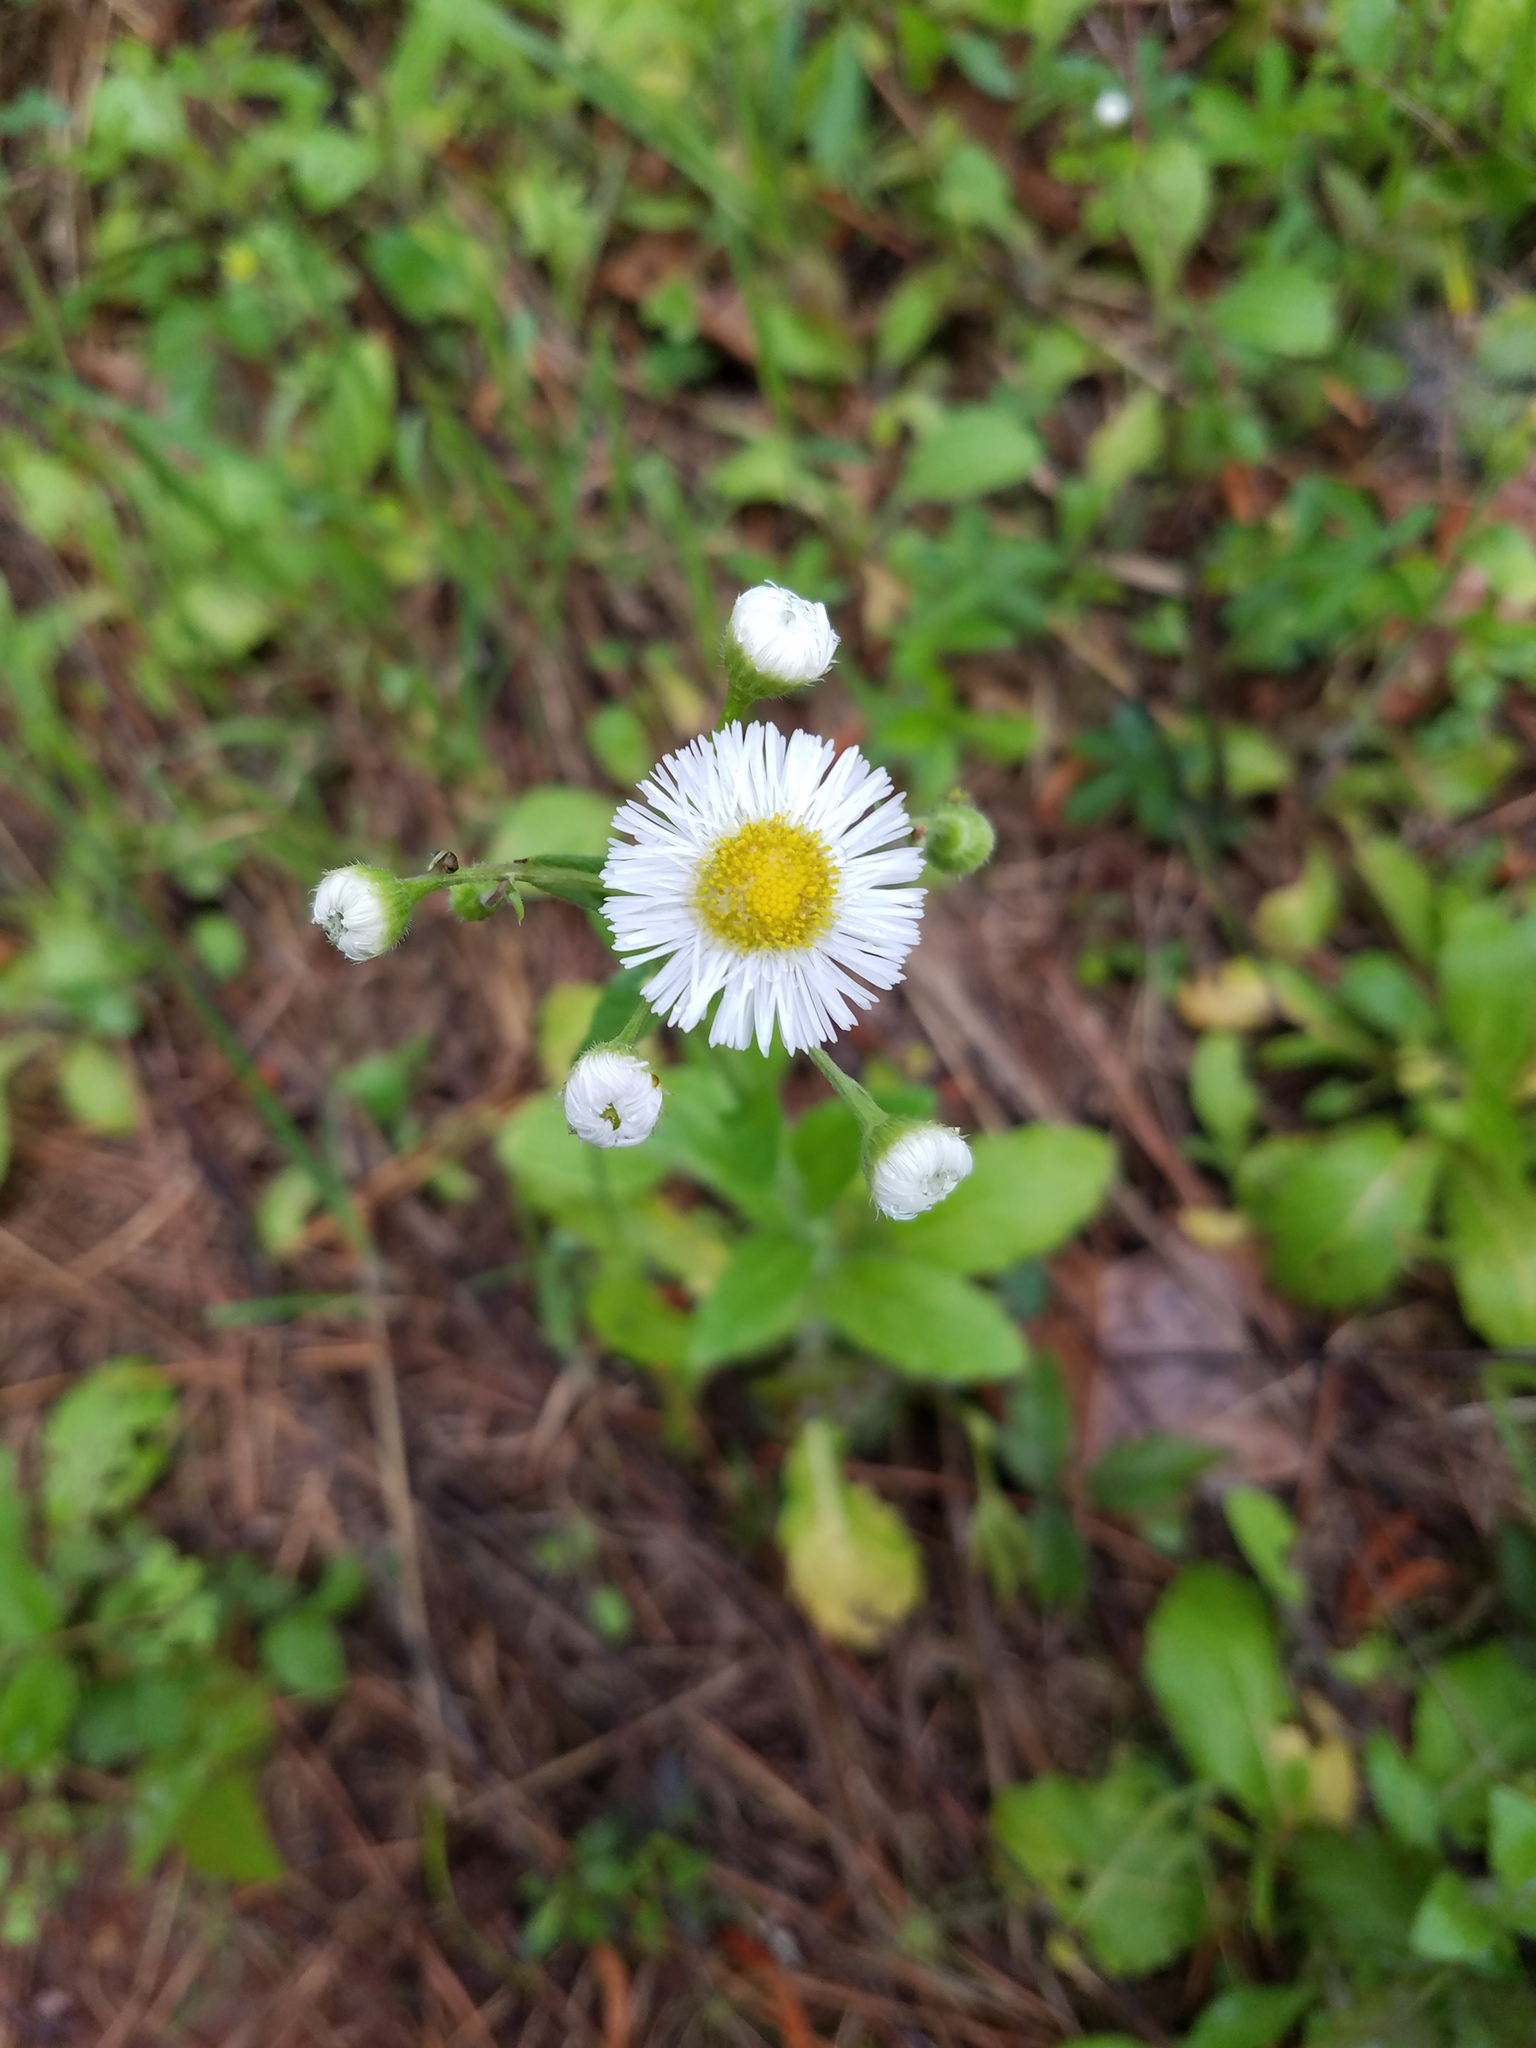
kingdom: Plantae
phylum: Tracheophyta
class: Magnoliopsida
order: Asterales
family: Asteraceae
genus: Erigeron
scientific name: Erigeron philadelphicus
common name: Robin's-plantain
